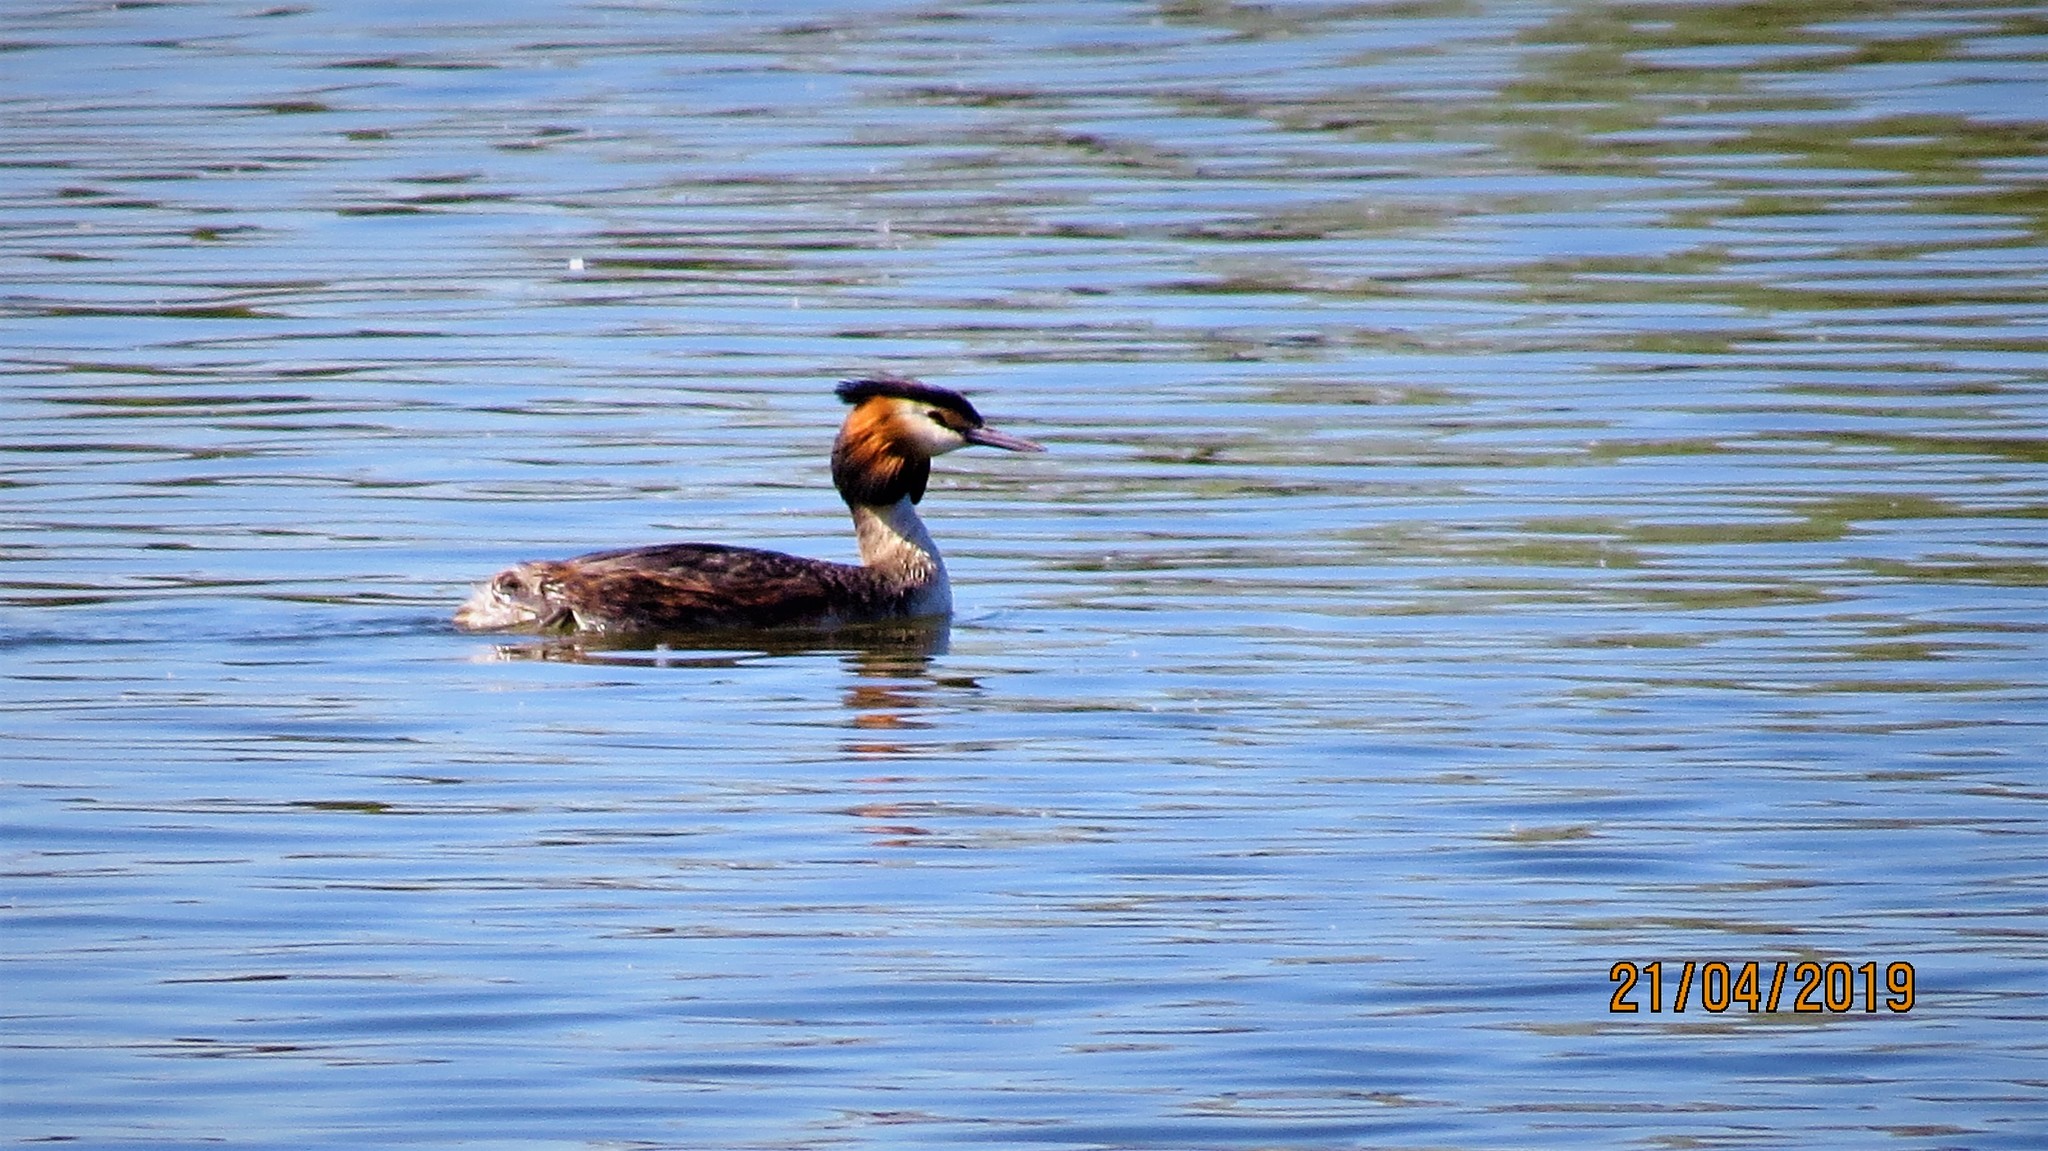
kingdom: Animalia
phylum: Chordata
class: Aves
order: Podicipediformes
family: Podicipedidae
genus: Podiceps
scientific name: Podiceps cristatus
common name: Great crested grebe
